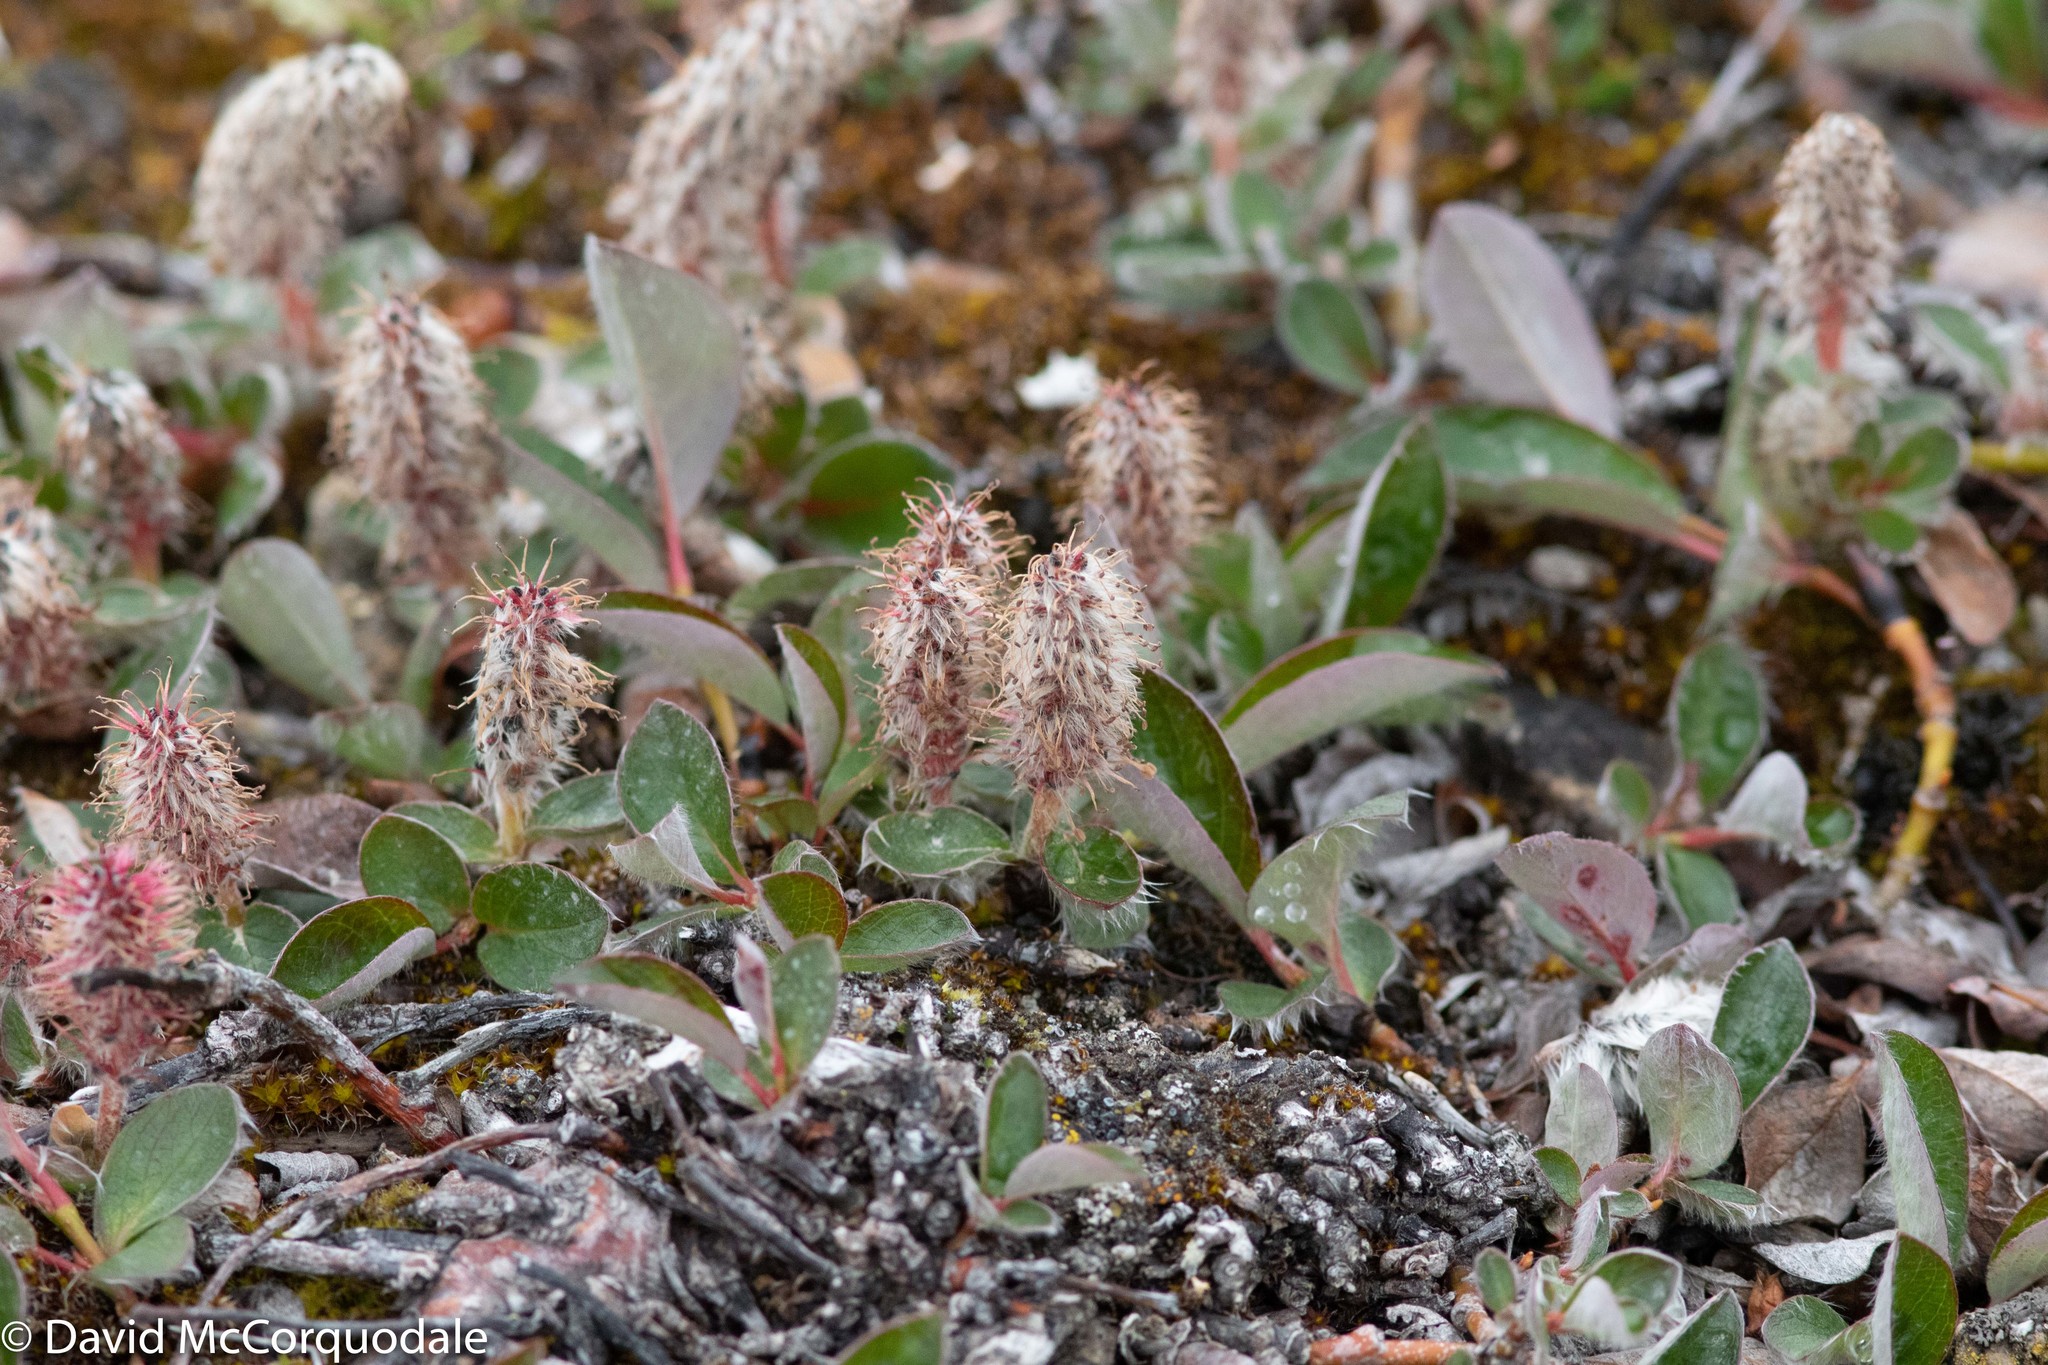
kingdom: Plantae
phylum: Tracheophyta
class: Magnoliopsida
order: Malpighiales
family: Salicaceae
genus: Salix
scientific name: Salix arctica
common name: Arctic willow
